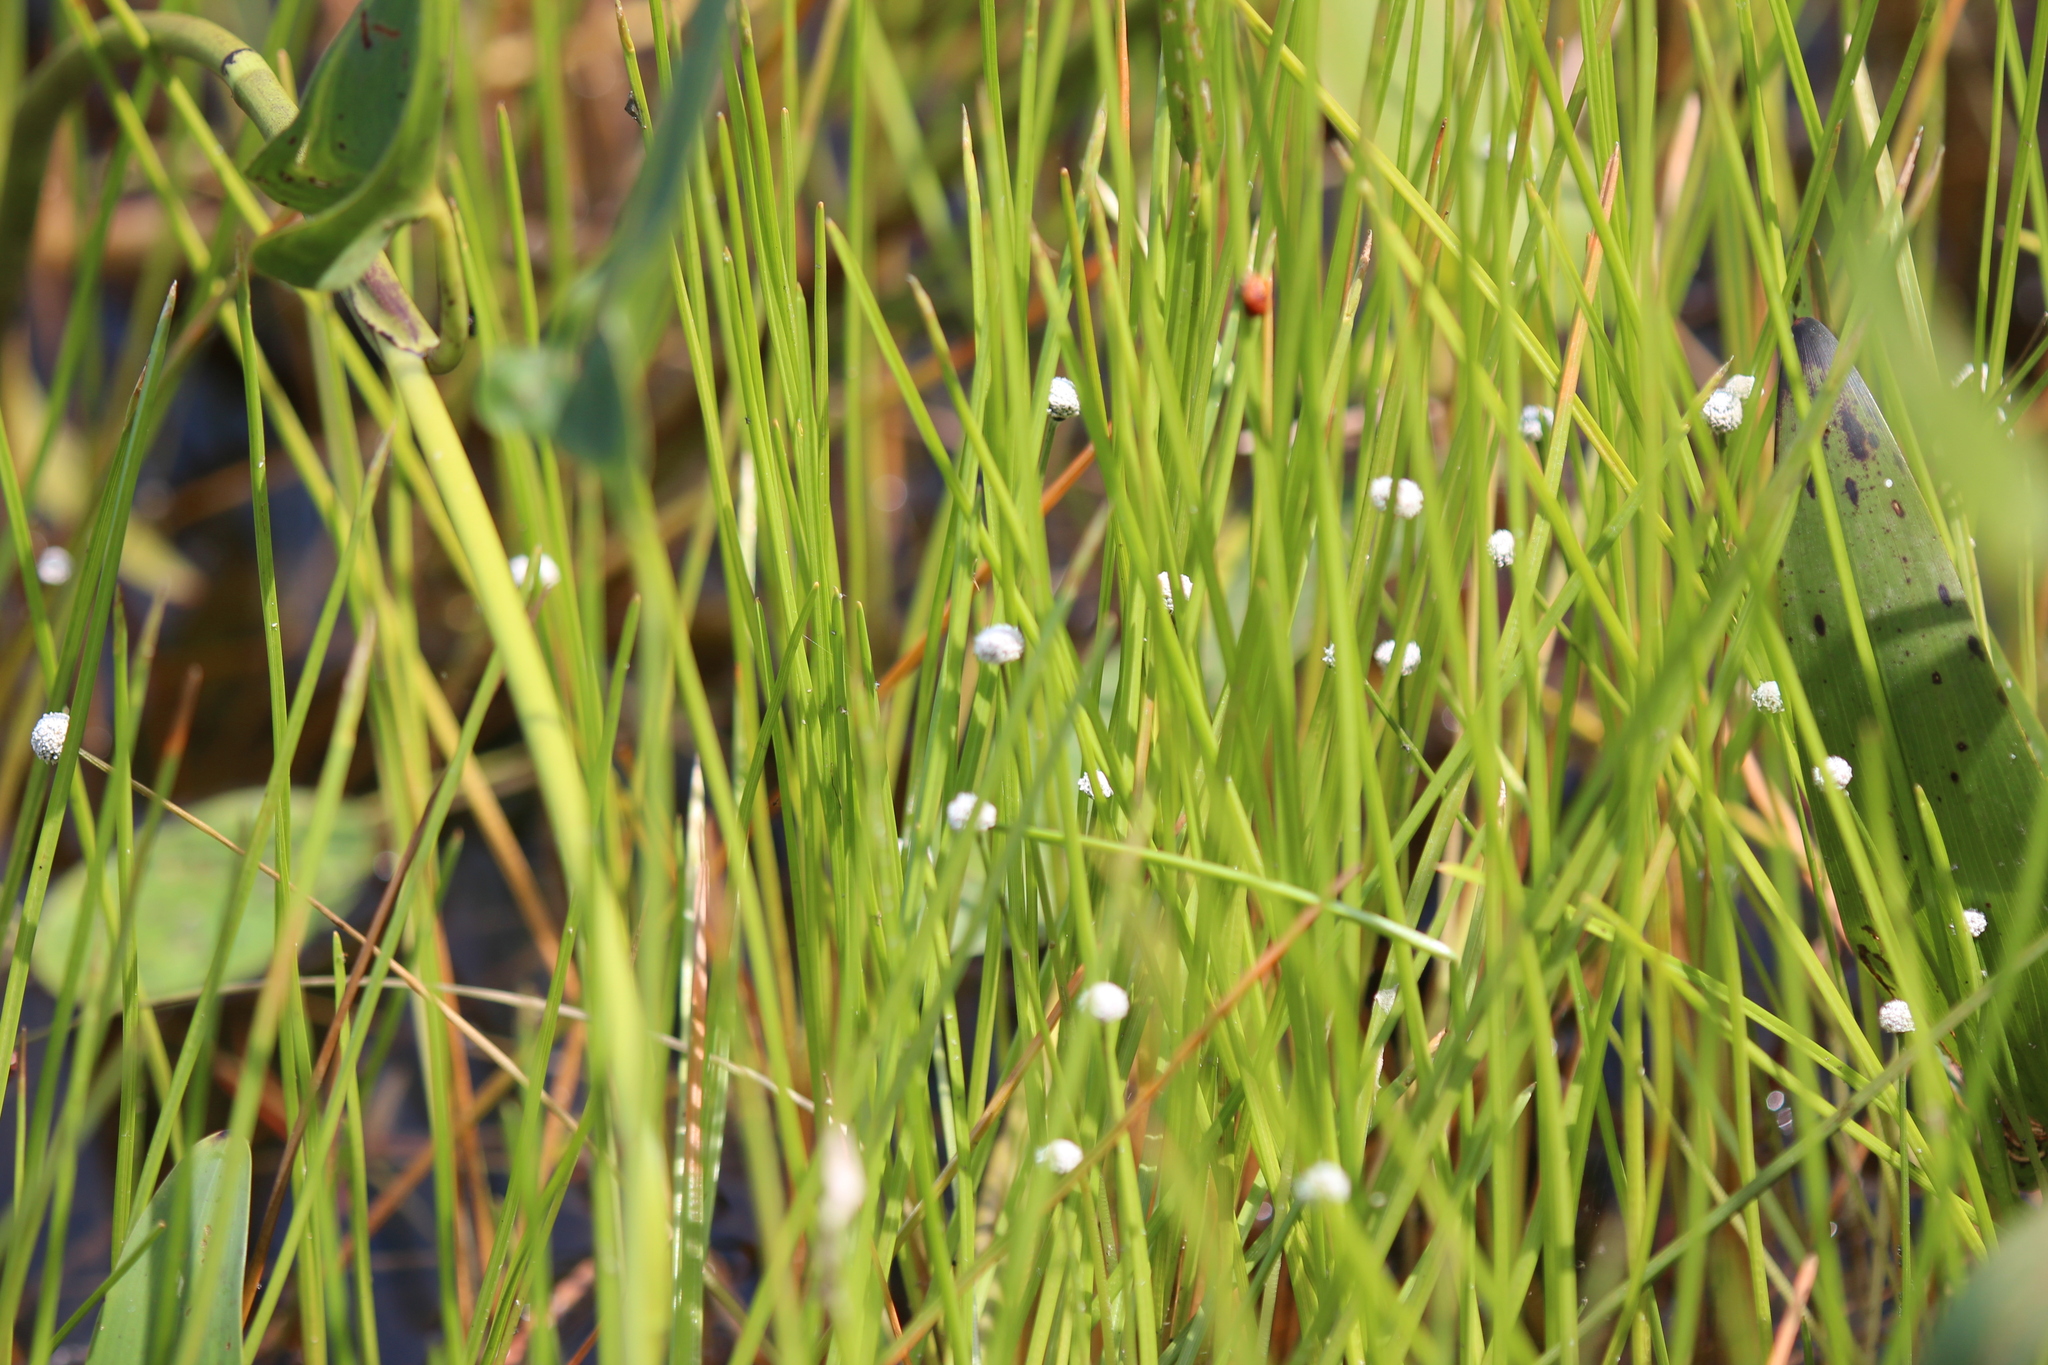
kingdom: Plantae
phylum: Tracheophyta
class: Liliopsida
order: Poales
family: Eriocaulaceae
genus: Eriocaulon
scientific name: Eriocaulon aquaticum
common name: Pipewort
